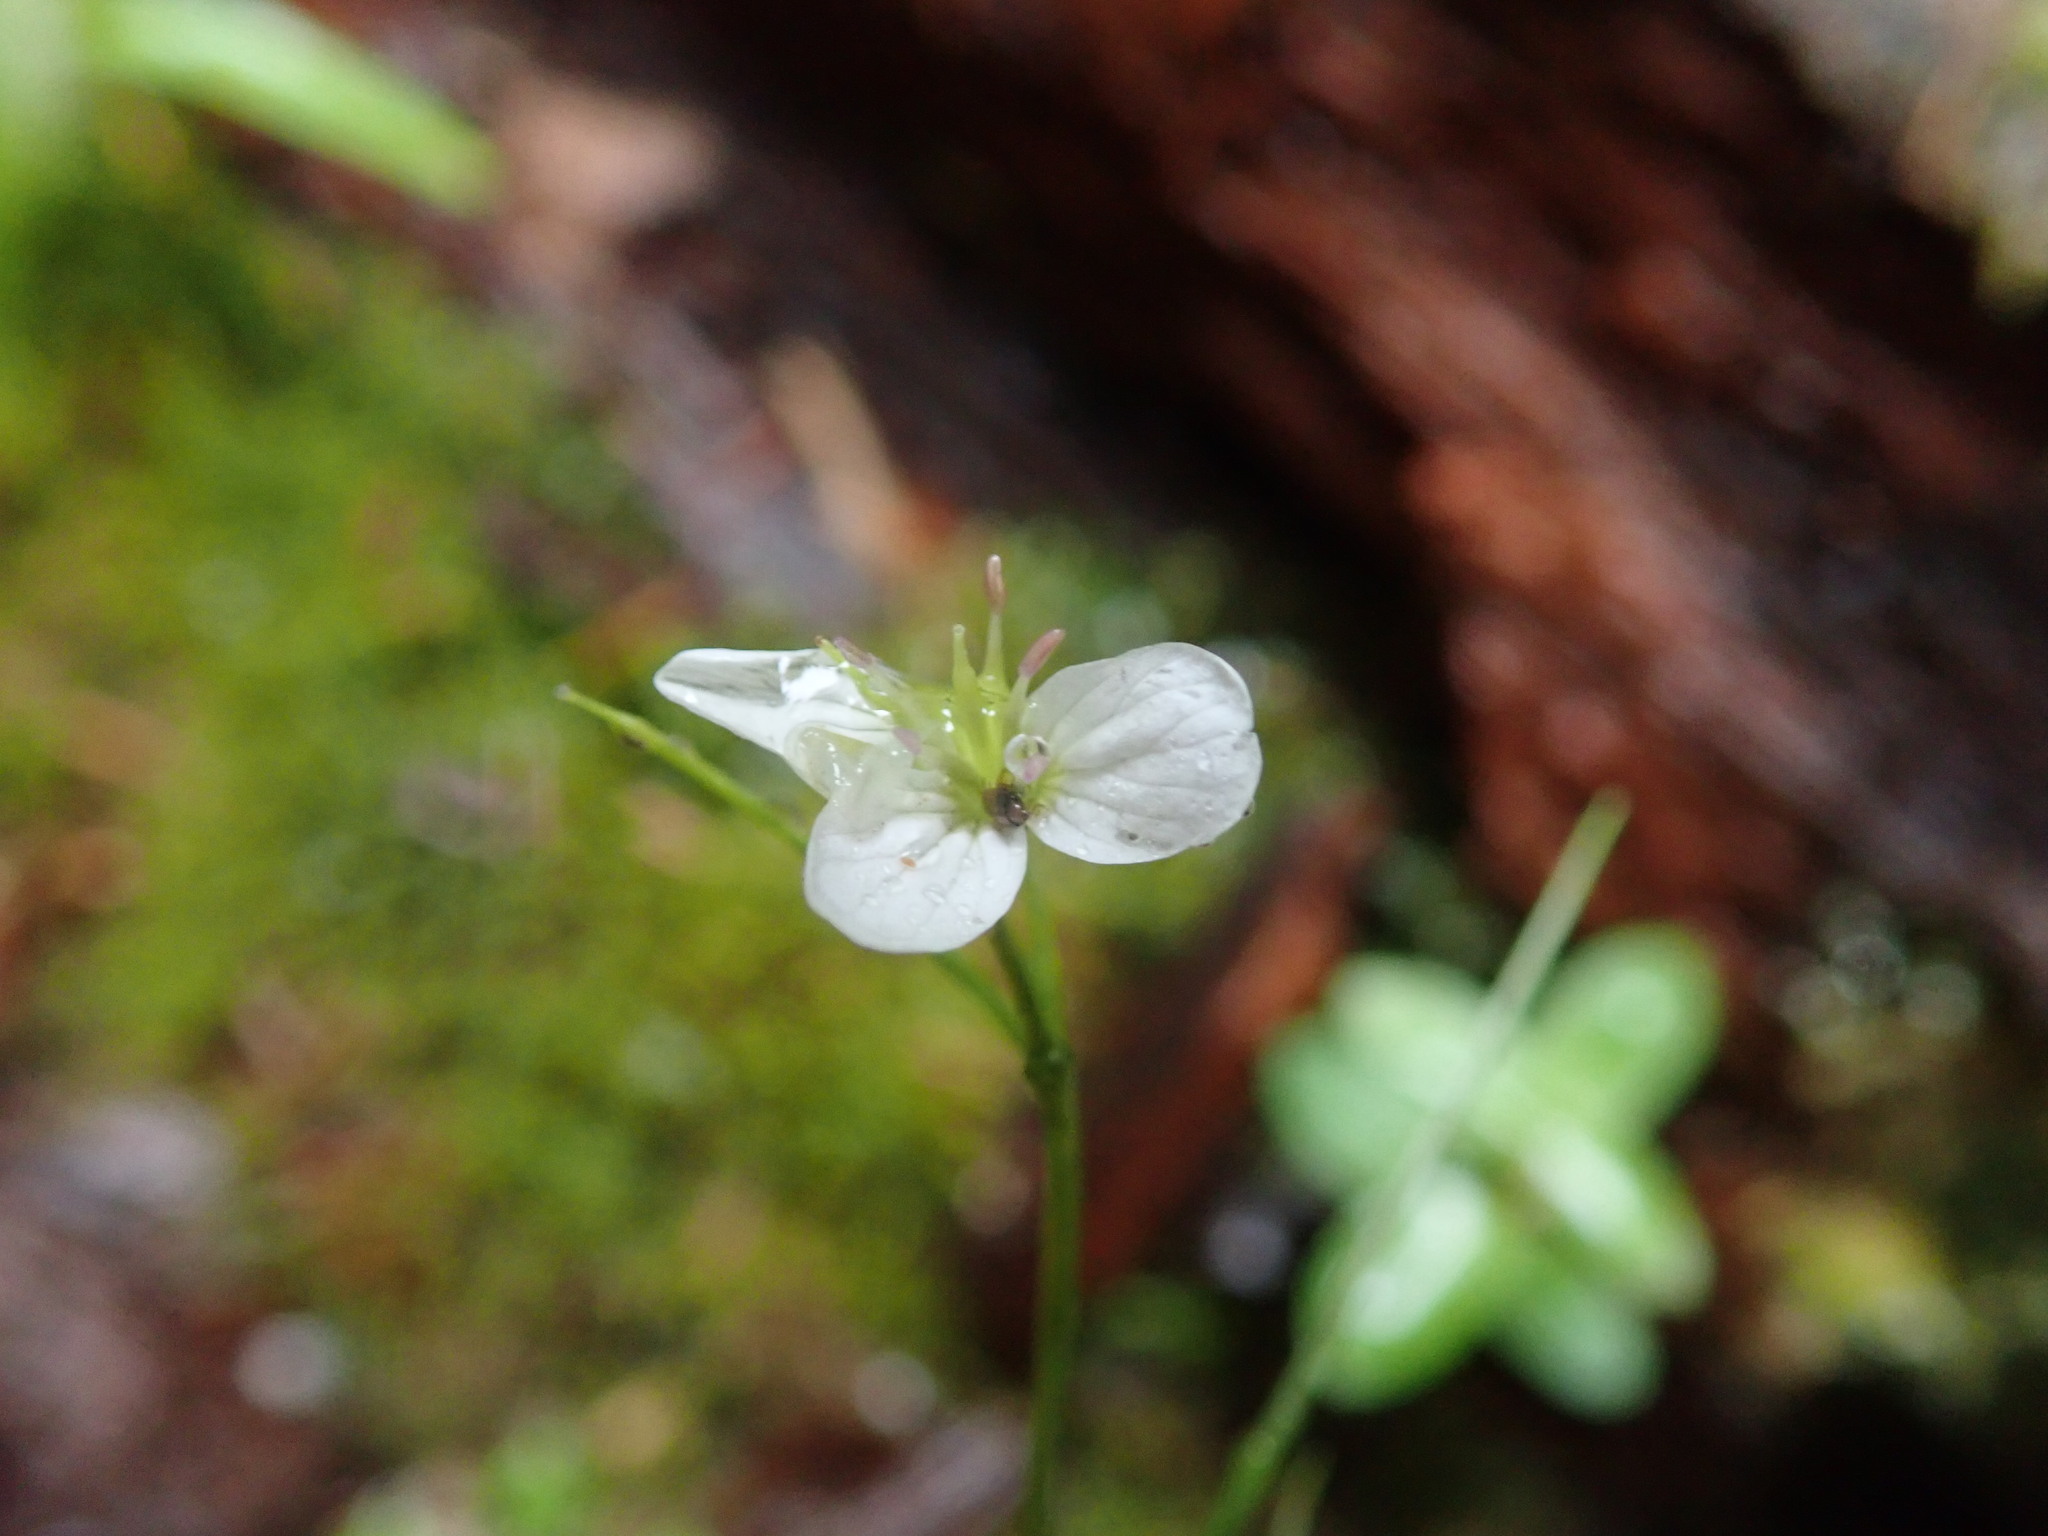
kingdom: Plantae
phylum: Tracheophyta
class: Magnoliopsida
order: Brassicales
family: Brassicaceae
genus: Cardamine
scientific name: Cardamine amara
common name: Large bitter-cress
